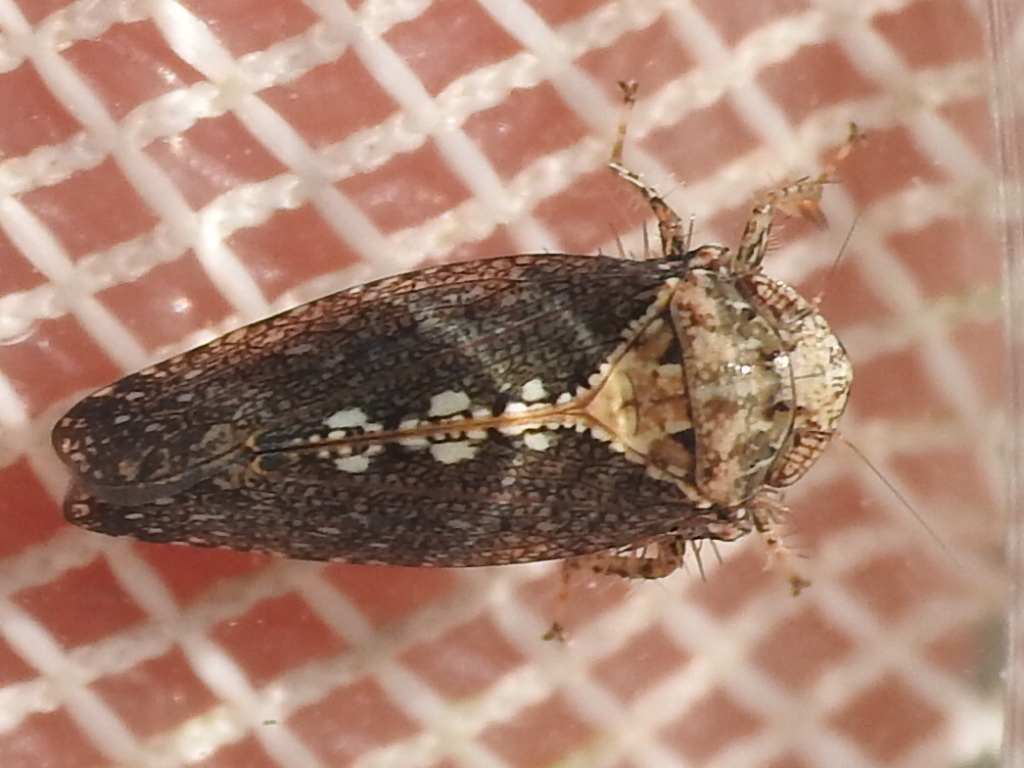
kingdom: Animalia
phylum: Arthropoda
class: Insecta
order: Hemiptera
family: Cicadellidae
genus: Excultanus
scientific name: Excultanus excultus
